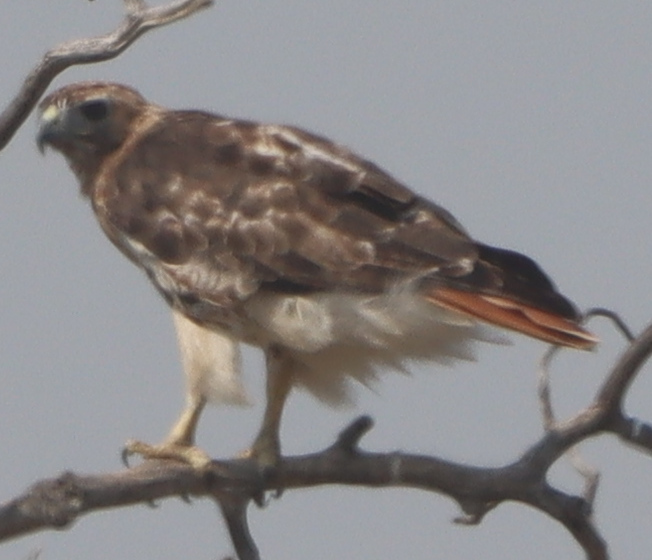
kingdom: Animalia
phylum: Chordata
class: Aves
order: Accipitriformes
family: Accipitridae
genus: Buteo
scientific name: Buteo jamaicensis
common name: Red-tailed hawk
